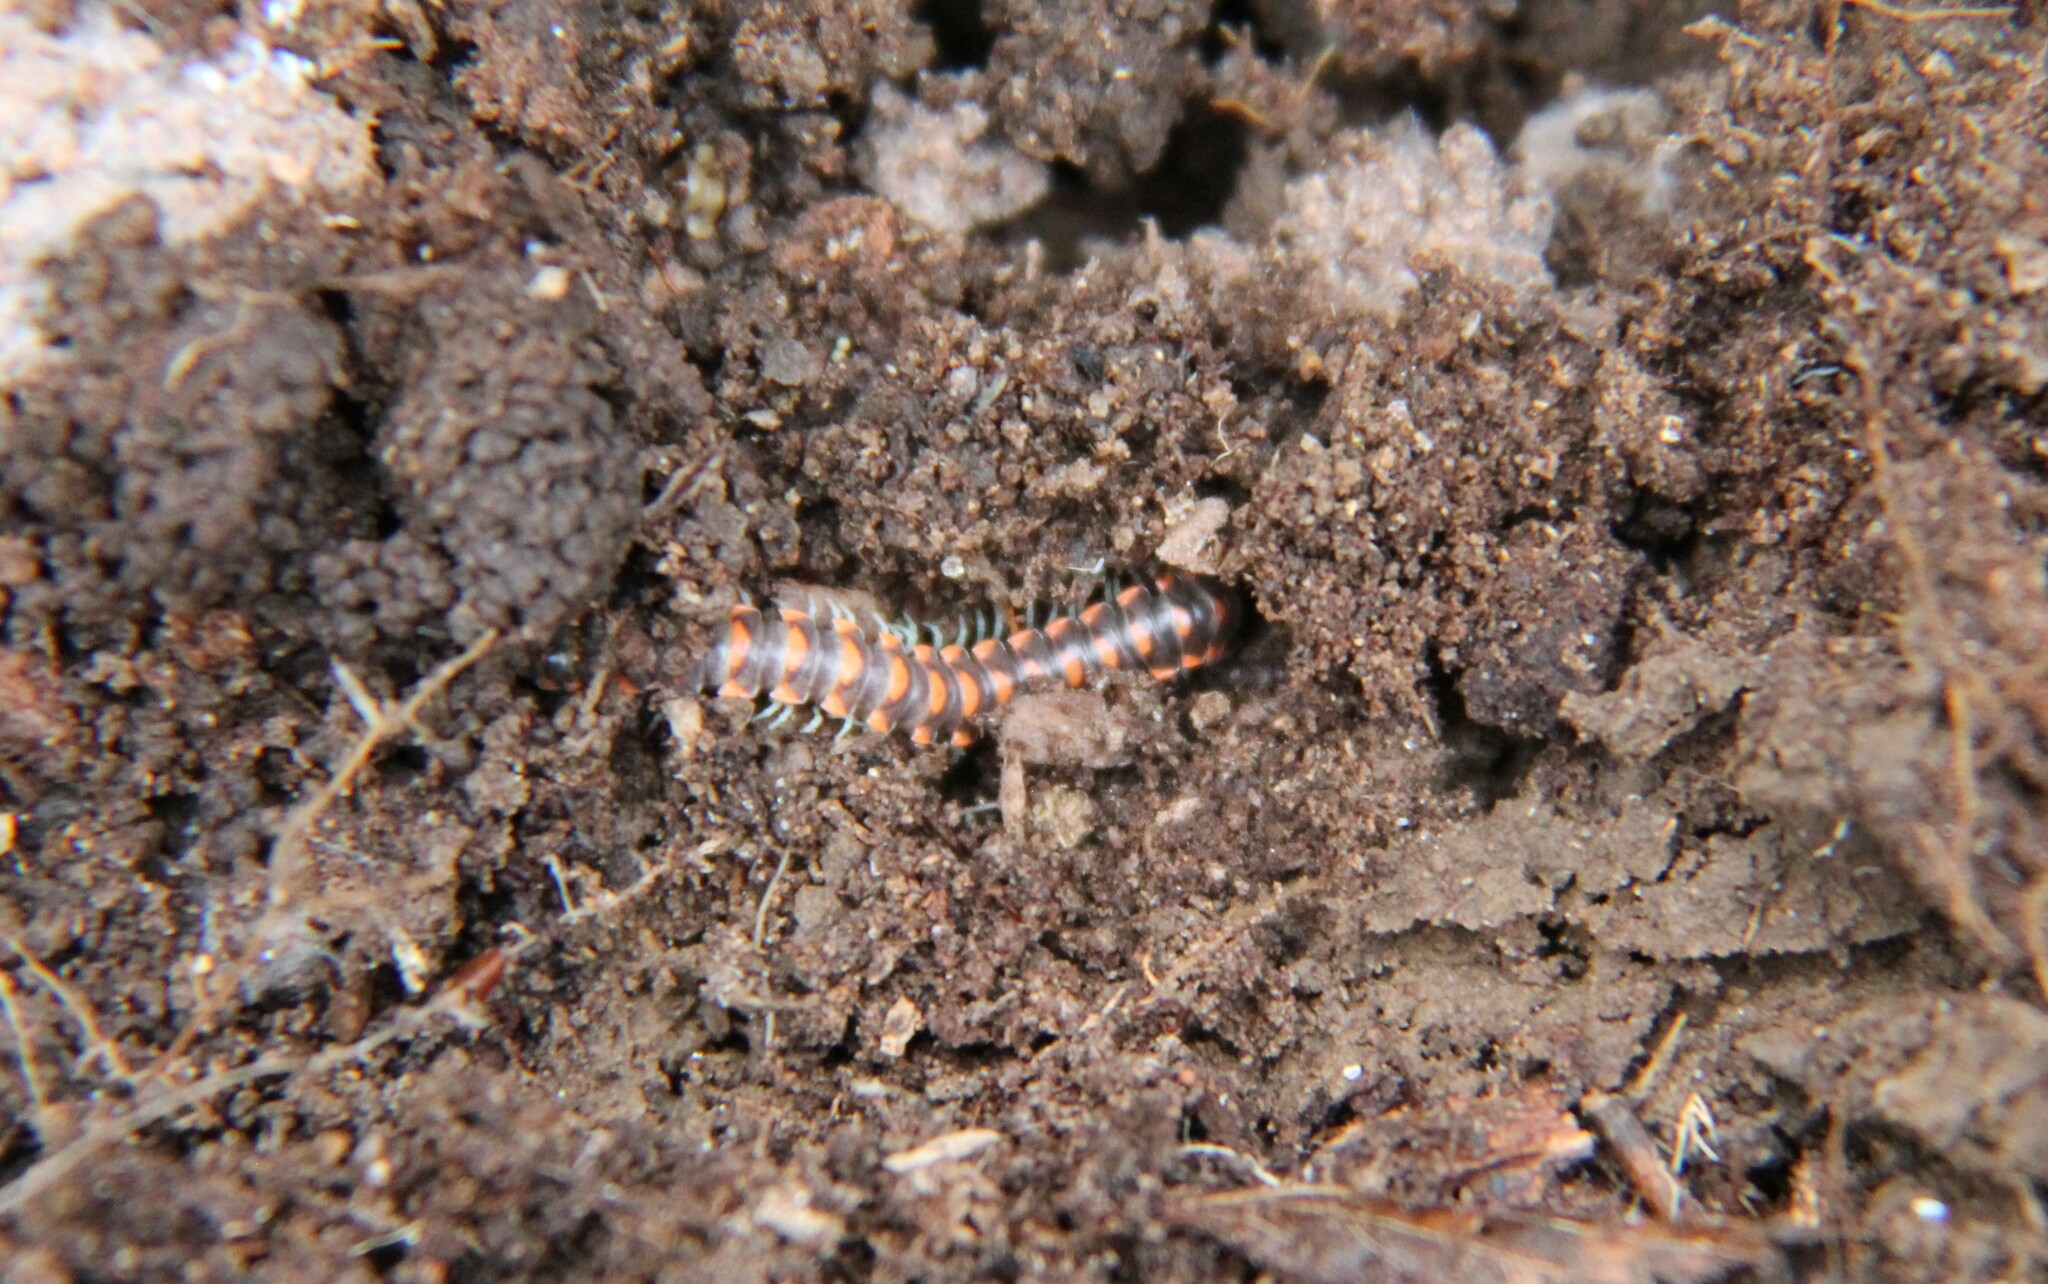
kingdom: Animalia
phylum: Arthropoda
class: Diplopoda
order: Polydesmida
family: Xystodesmidae
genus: Euryurus
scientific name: Euryurus leachii
